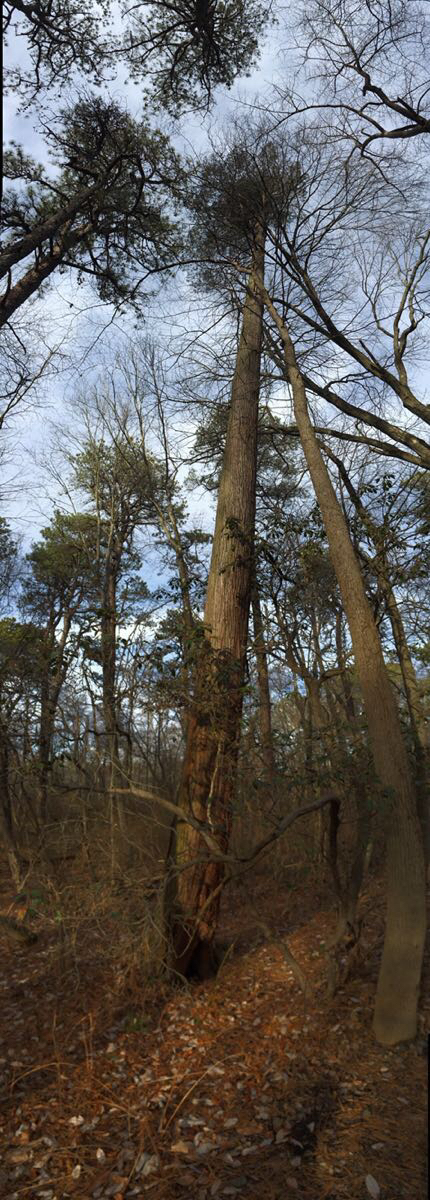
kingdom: Plantae
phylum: Tracheophyta
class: Pinopsida
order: Pinales
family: Cupressaceae
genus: Chamaecyparis
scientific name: Chamaecyparis thyoides
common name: Atlantic white cedar
